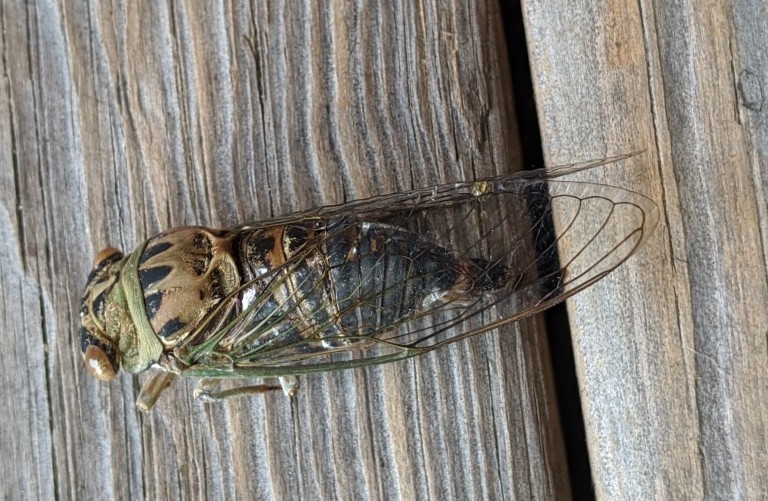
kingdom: Animalia
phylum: Arthropoda
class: Insecta
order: Hemiptera
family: Cicadidae
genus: Neotibicen
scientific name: Neotibicen winnemanna
